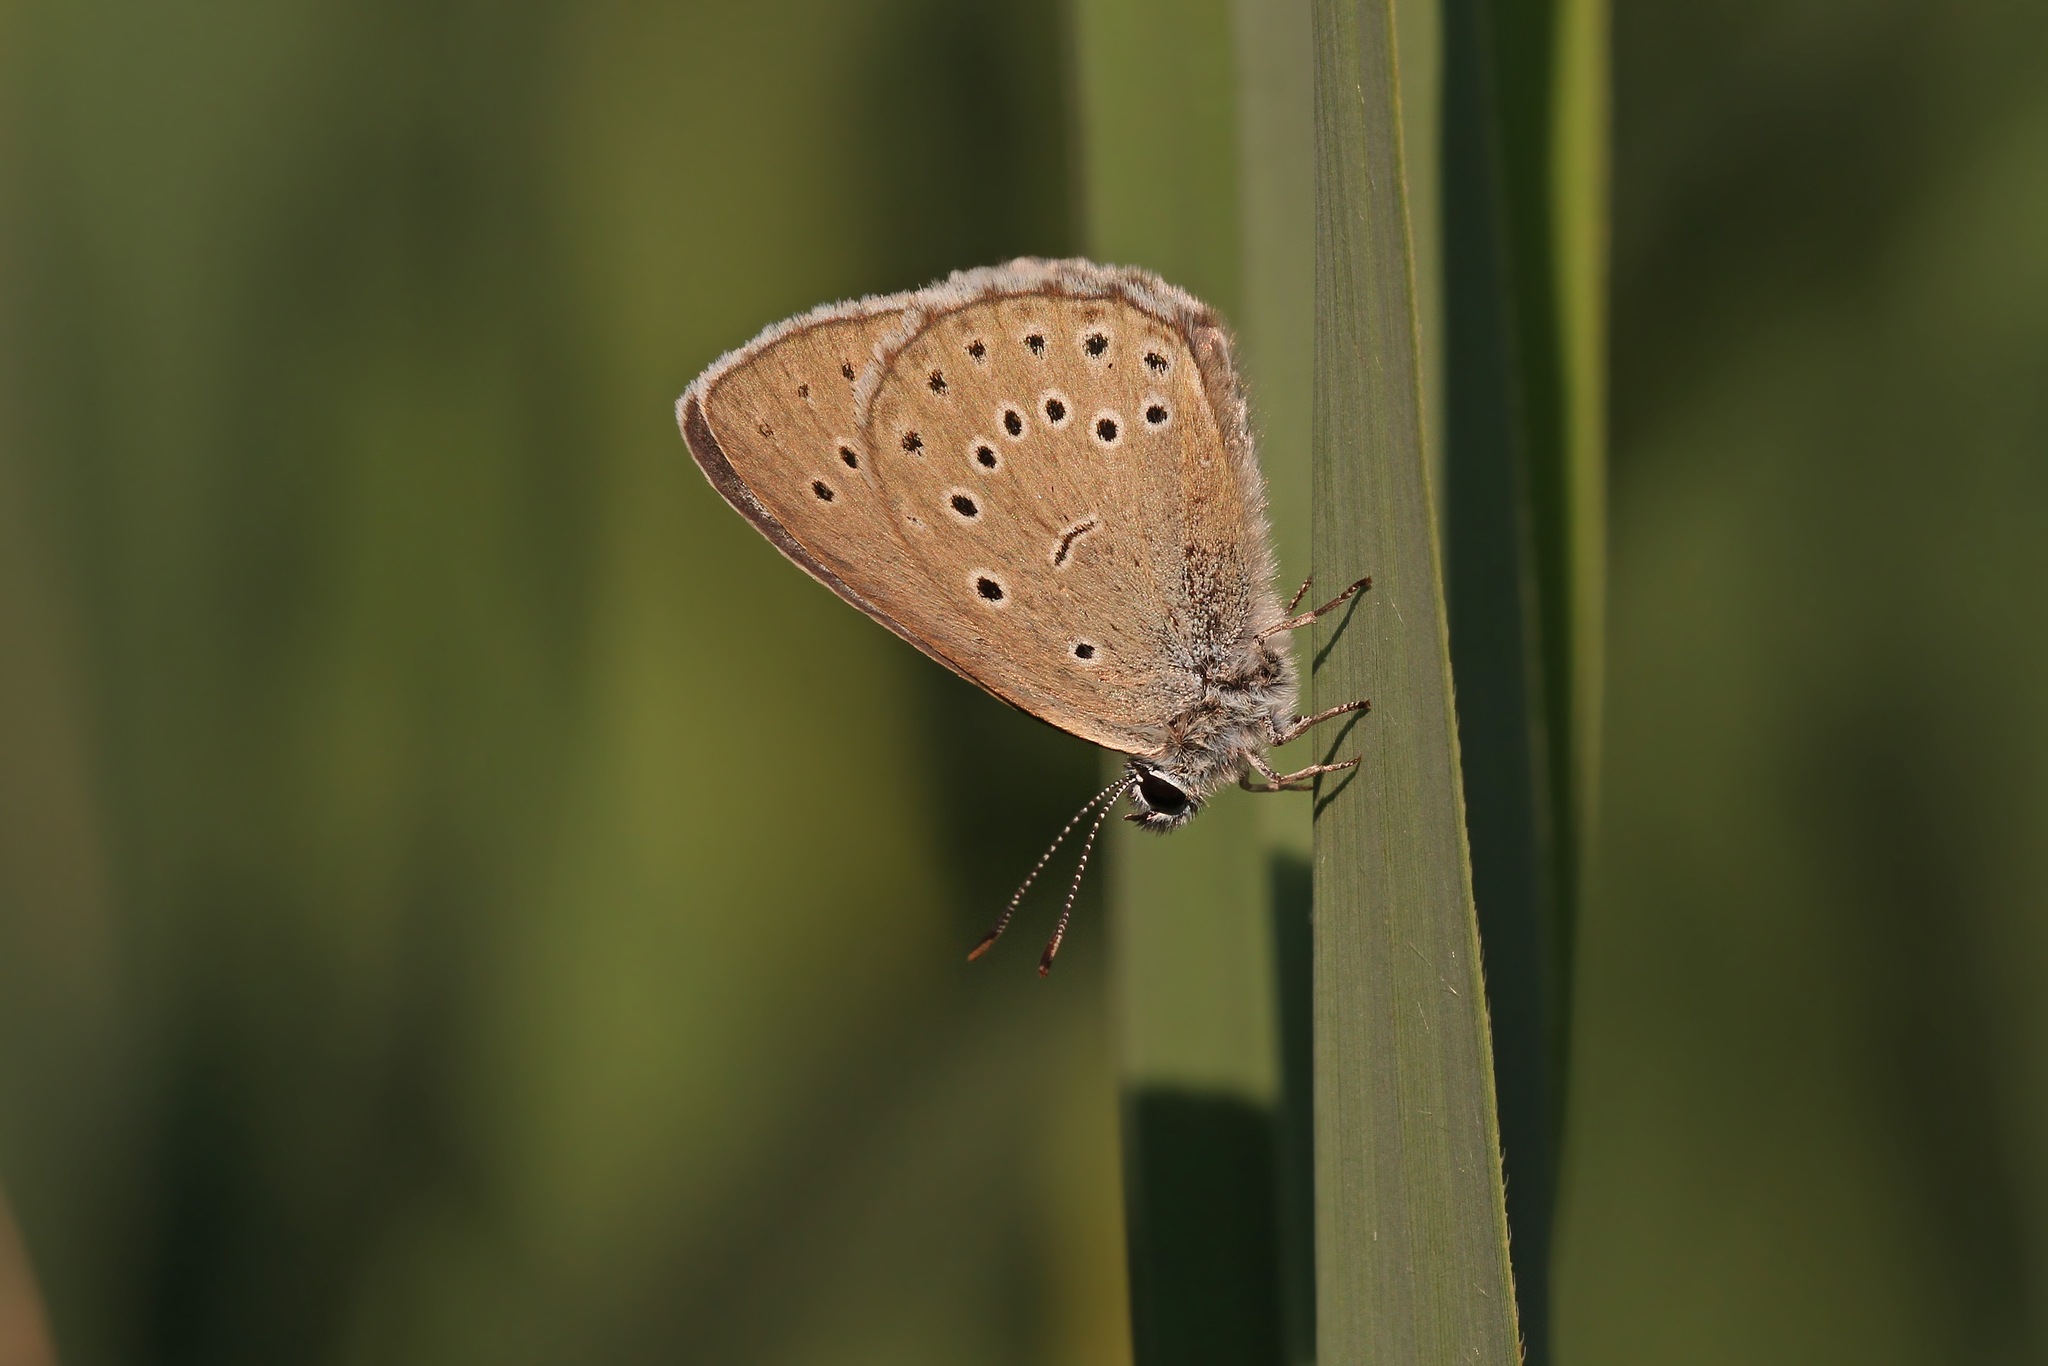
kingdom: Animalia
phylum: Arthropoda
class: Insecta
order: Lepidoptera
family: Lycaenidae
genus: Phengaris
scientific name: Phengaris teleius
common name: Scarce large blue
